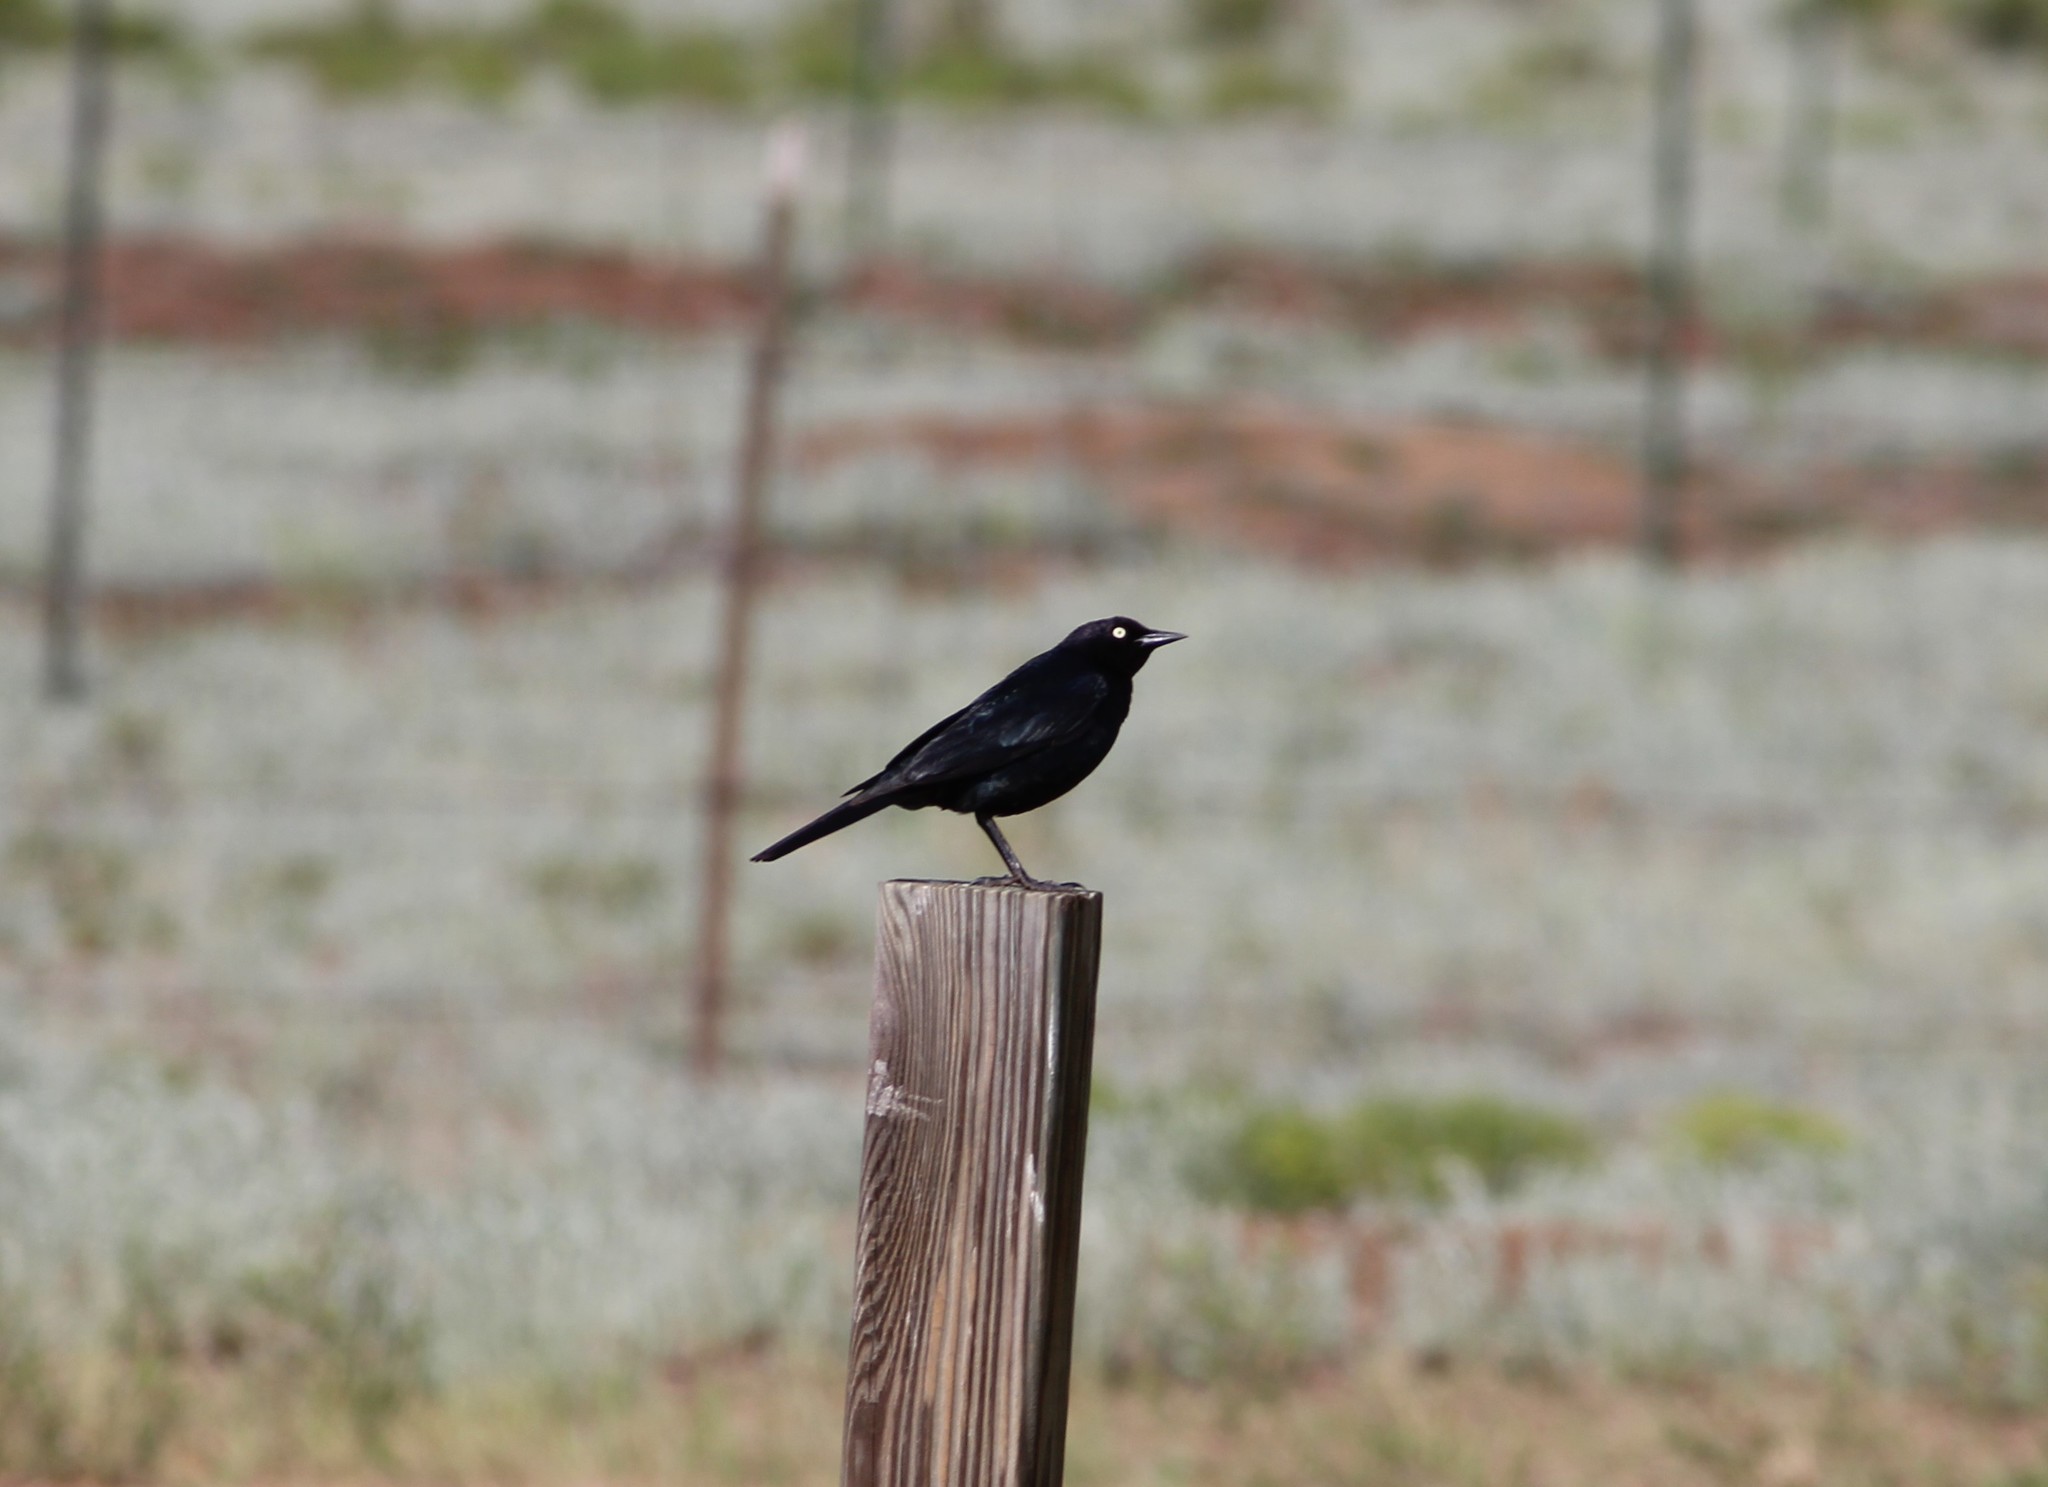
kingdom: Animalia
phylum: Chordata
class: Aves
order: Passeriformes
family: Icteridae
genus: Euphagus
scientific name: Euphagus cyanocephalus
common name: Brewer's blackbird
